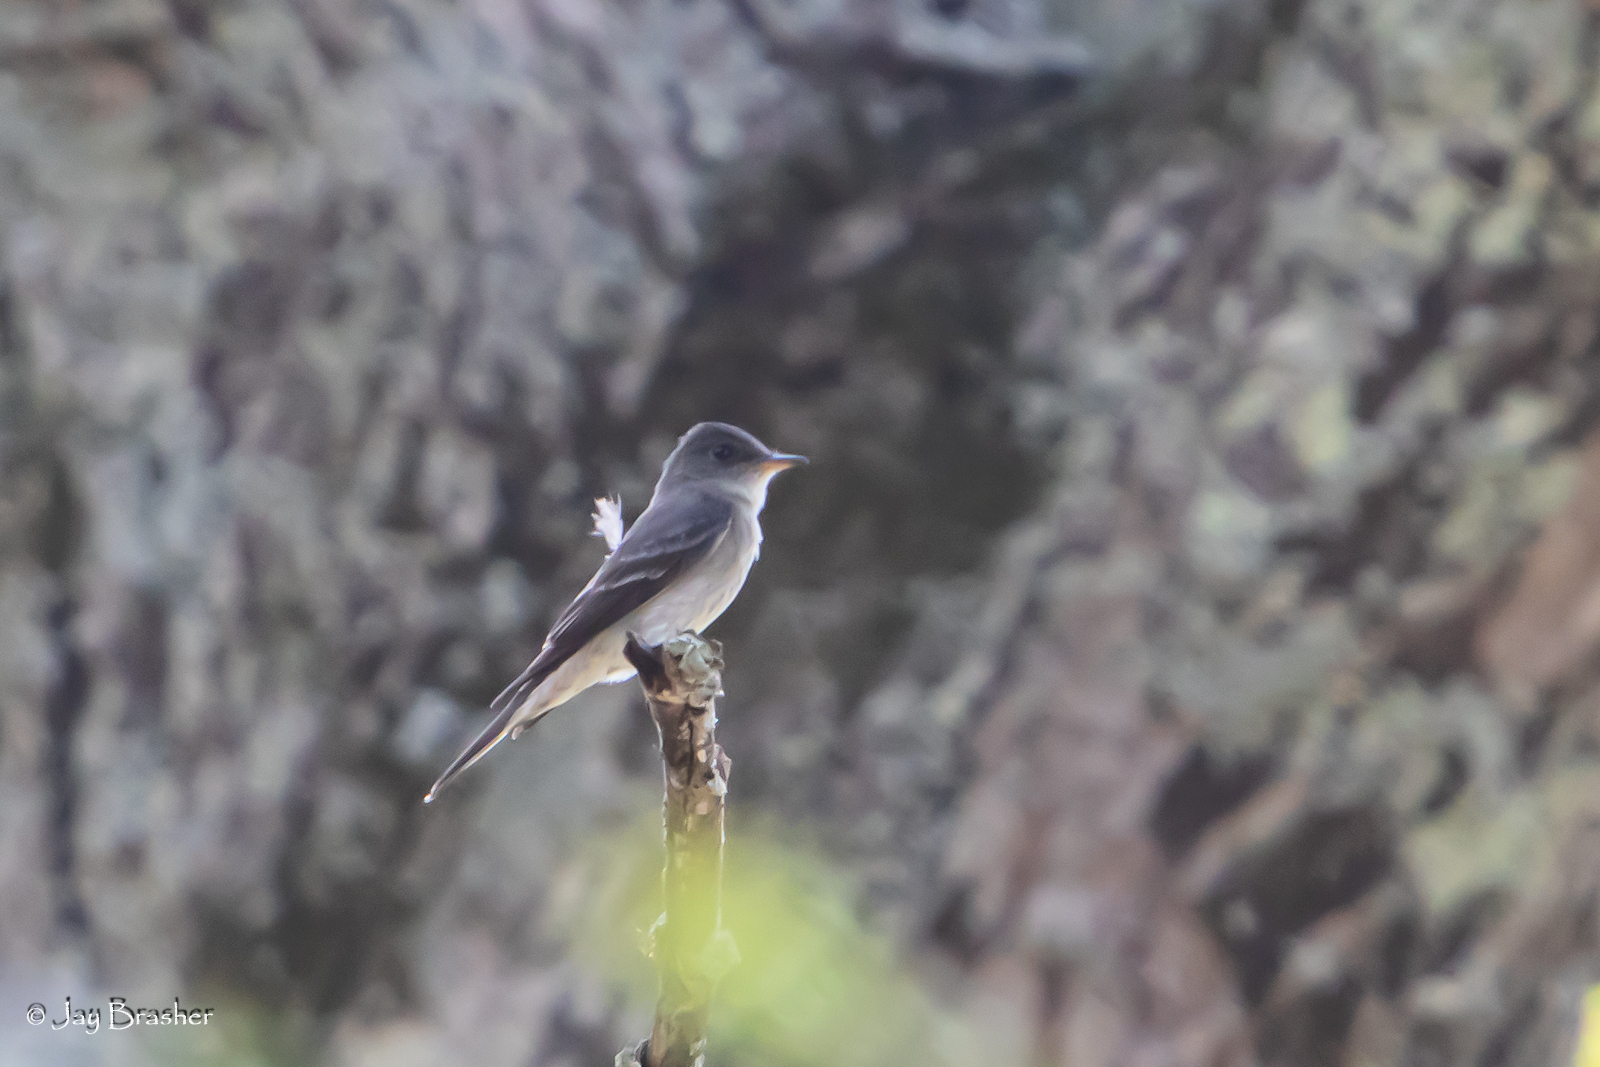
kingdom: Animalia
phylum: Chordata
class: Aves
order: Passeriformes
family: Tyrannidae
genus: Contopus
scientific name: Contopus virens
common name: Eastern wood-pewee
